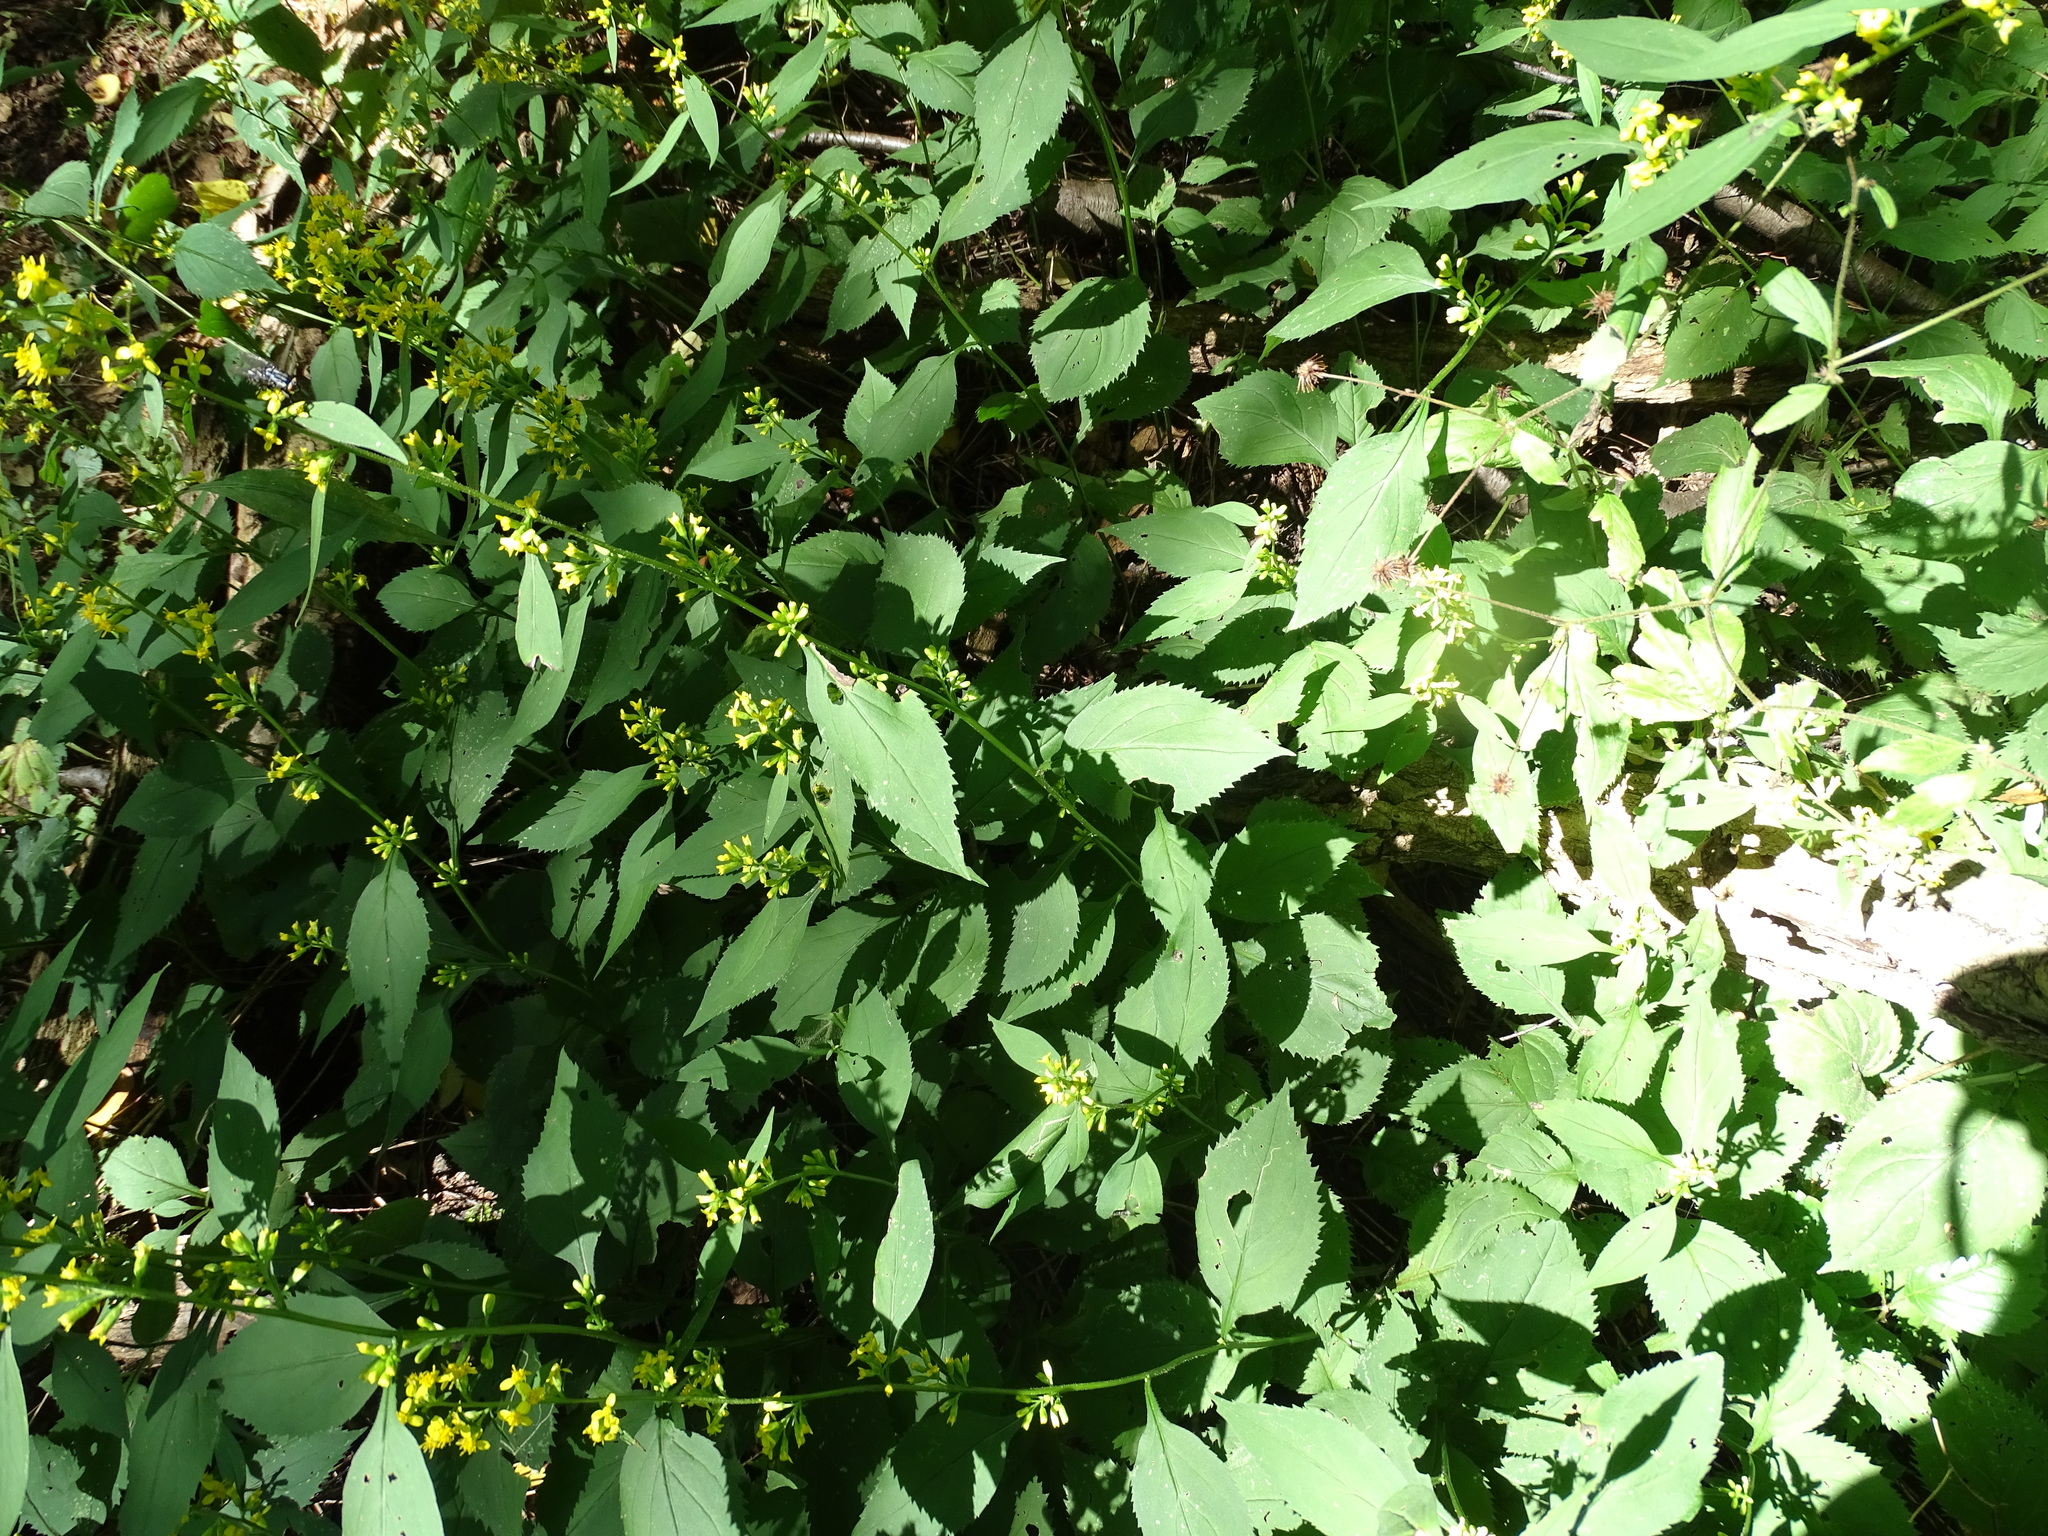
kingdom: Plantae
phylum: Tracheophyta
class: Magnoliopsida
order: Asterales
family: Asteraceae
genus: Solidago
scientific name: Solidago flexicaulis
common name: Zig-zag goldenrod
